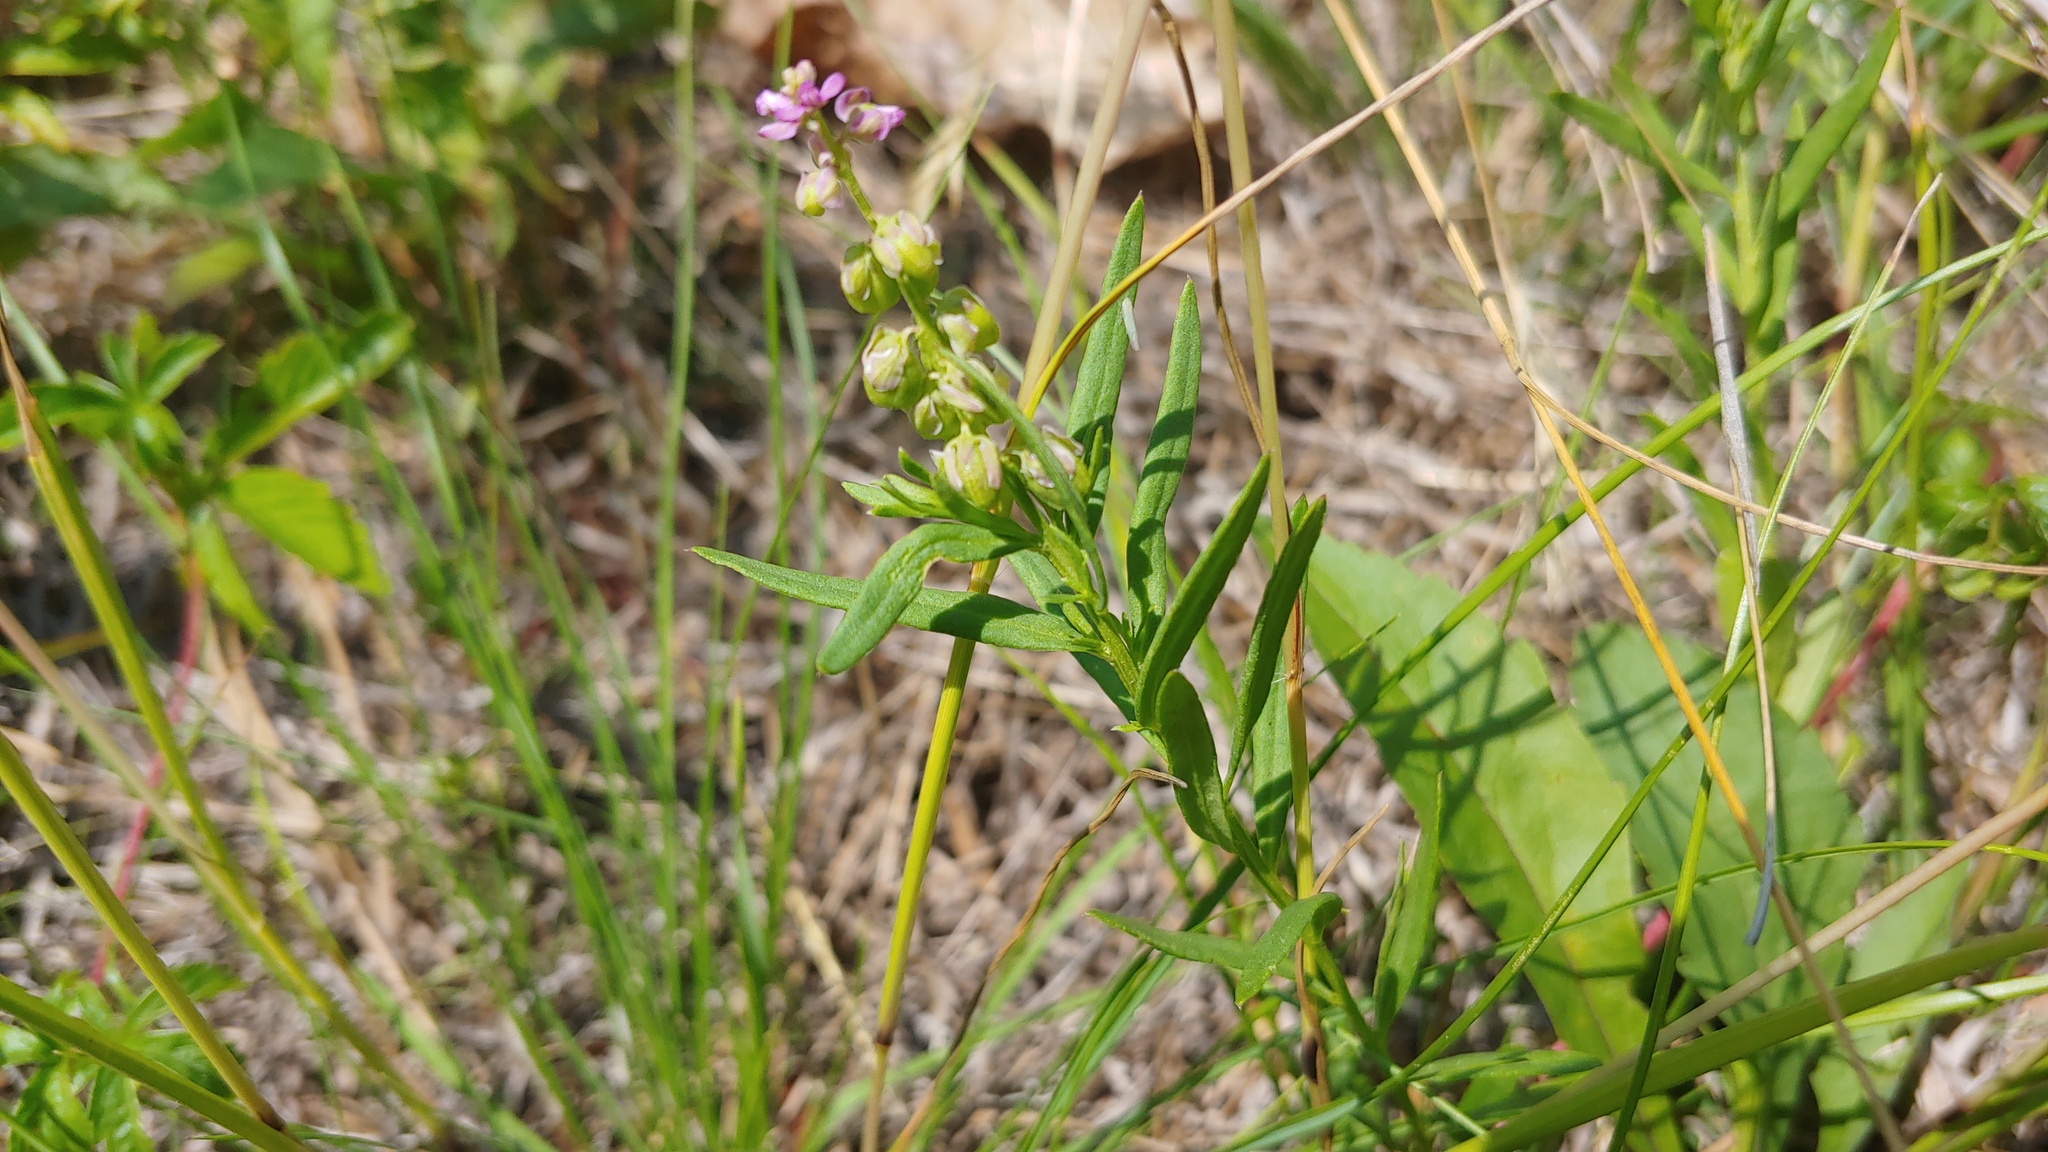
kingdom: Plantae
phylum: Tracheophyta
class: Magnoliopsida
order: Fabales
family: Polygalaceae
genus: Polygala
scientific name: Polygala polygama
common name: Bitter milkwort
